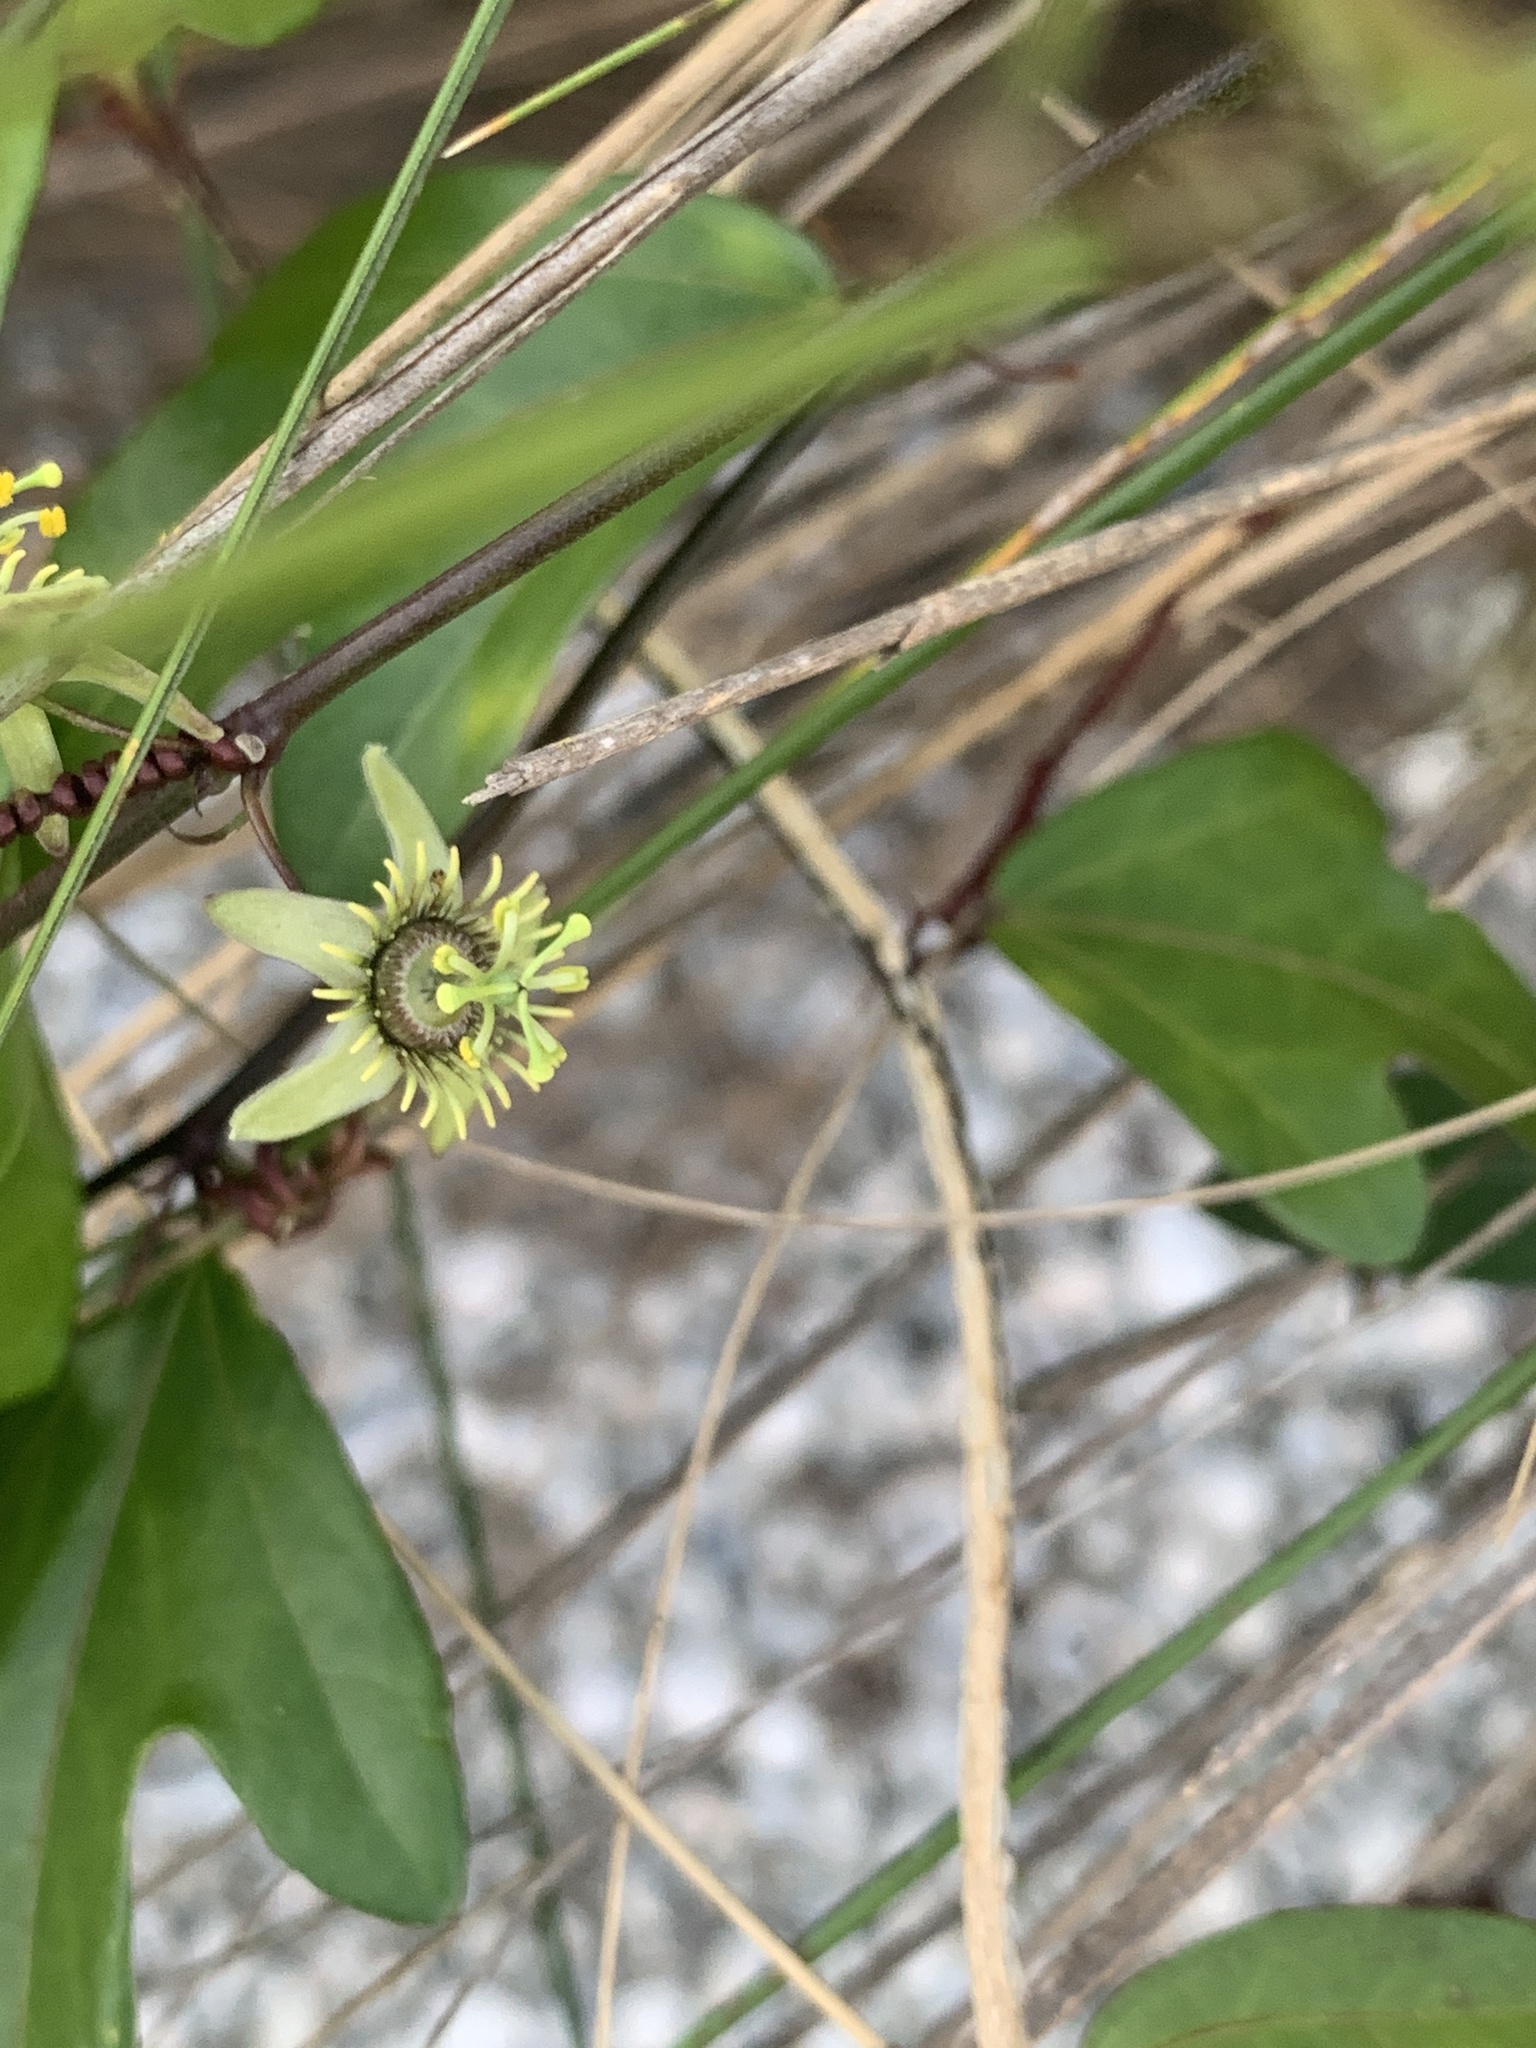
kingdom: Plantae
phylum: Tracheophyta
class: Magnoliopsida
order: Malpighiales
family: Passifloraceae
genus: Passiflora
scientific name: Passiflora pallida
